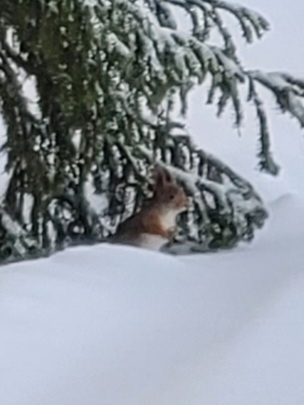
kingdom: Animalia
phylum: Chordata
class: Mammalia
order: Rodentia
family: Sciuridae
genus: Sciurus
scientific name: Sciurus vulgaris
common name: Eurasian red squirrel
